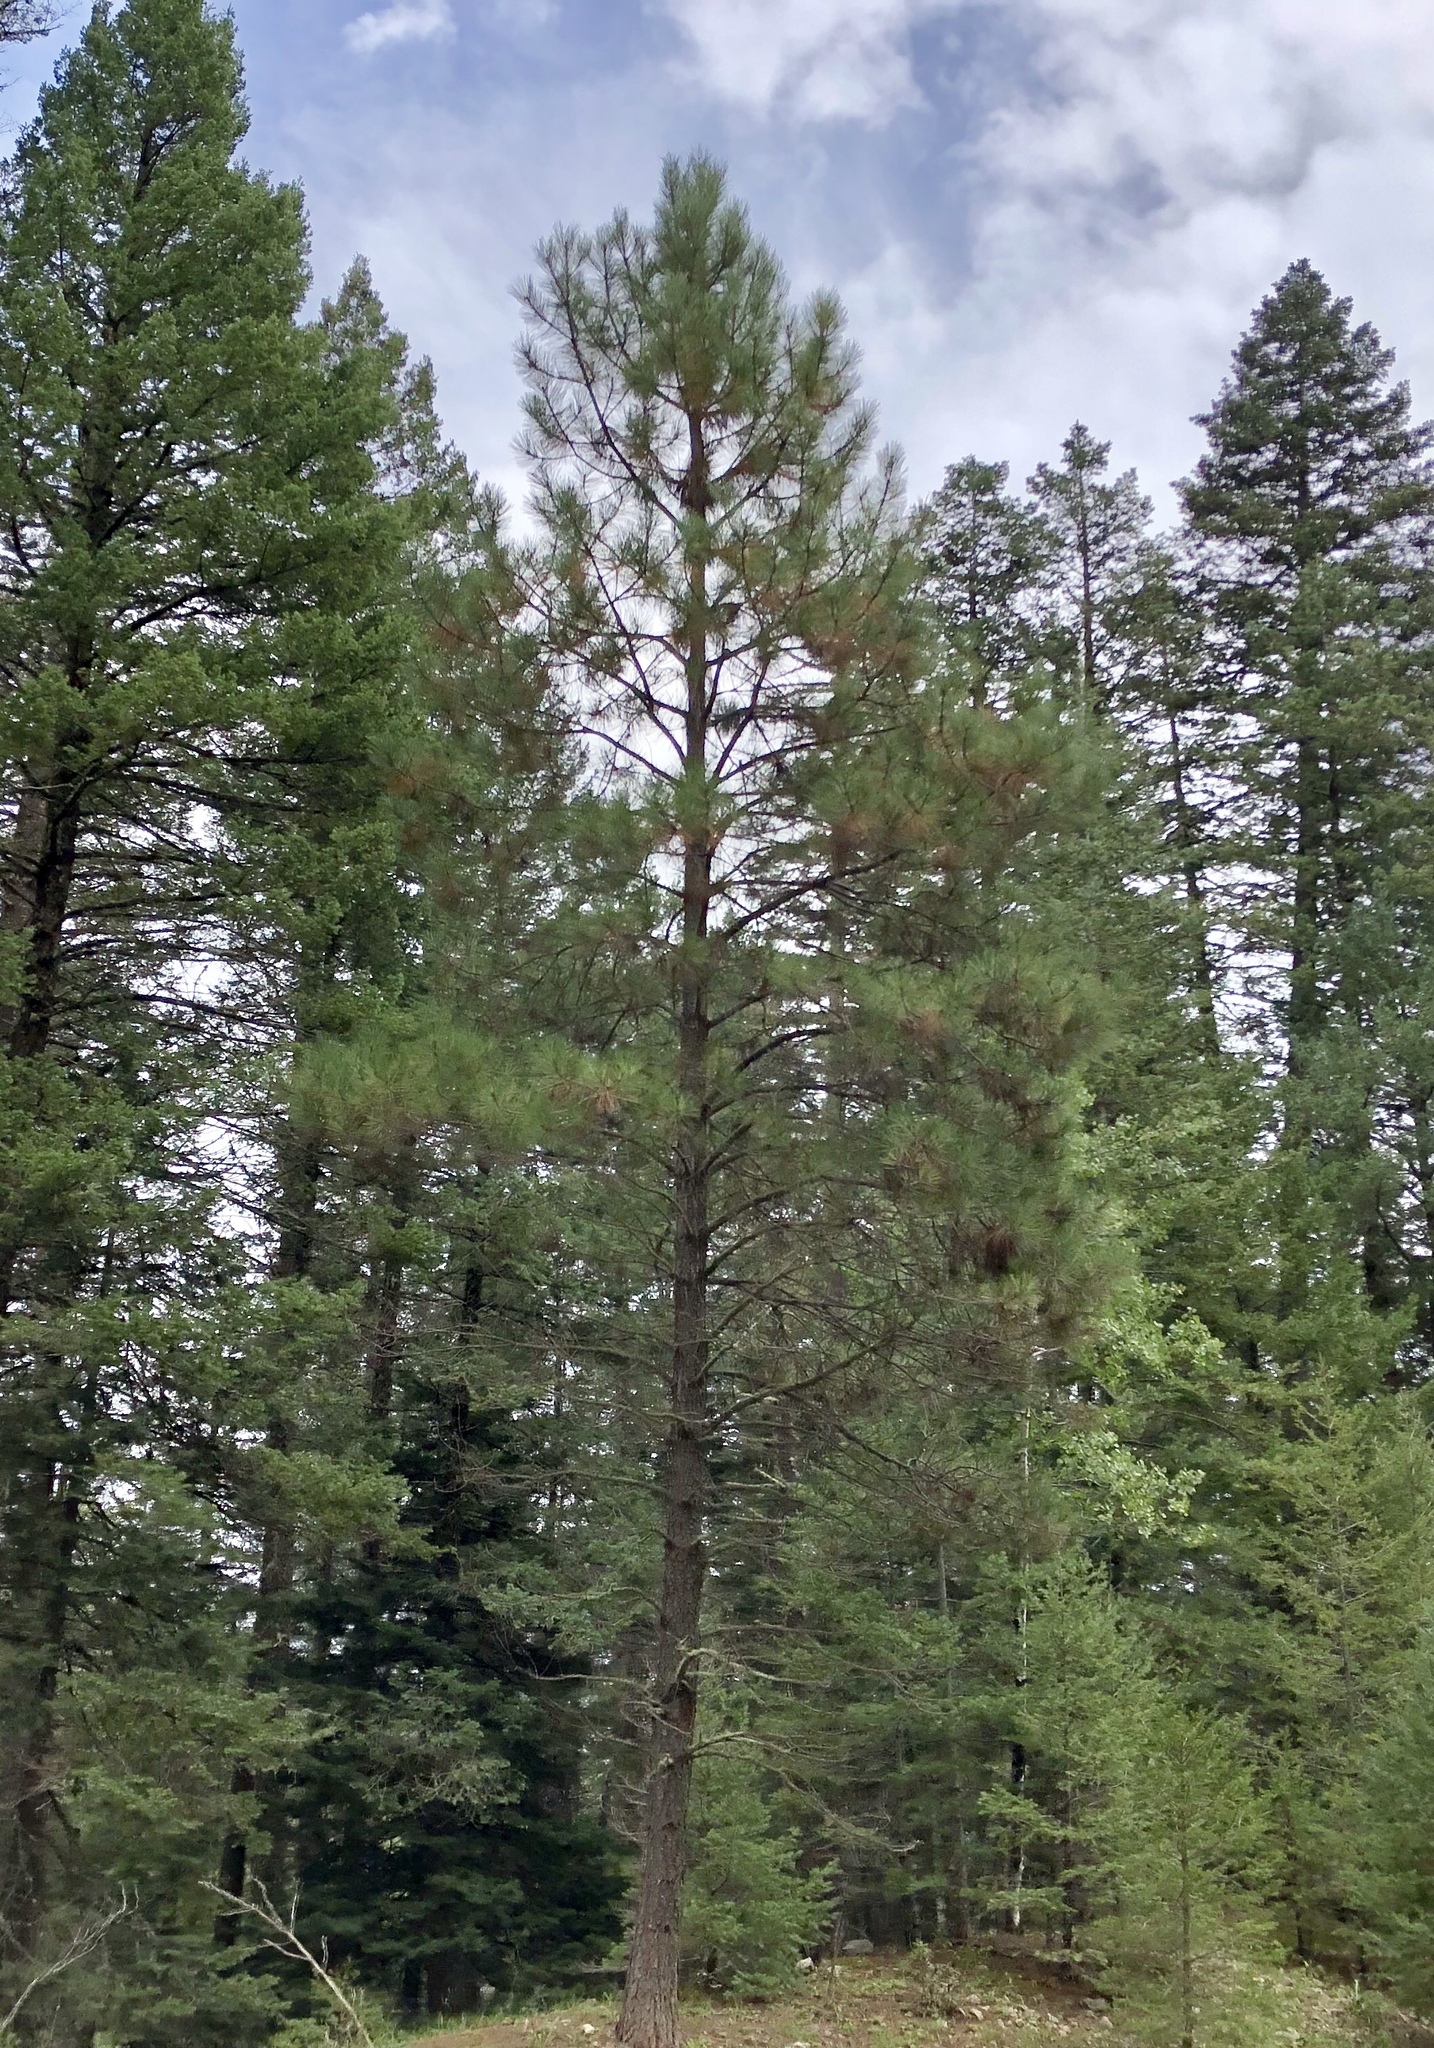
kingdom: Plantae
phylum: Tracheophyta
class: Pinopsida
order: Pinales
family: Pinaceae
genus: Pinus
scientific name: Pinus ponderosa
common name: Western yellow-pine
